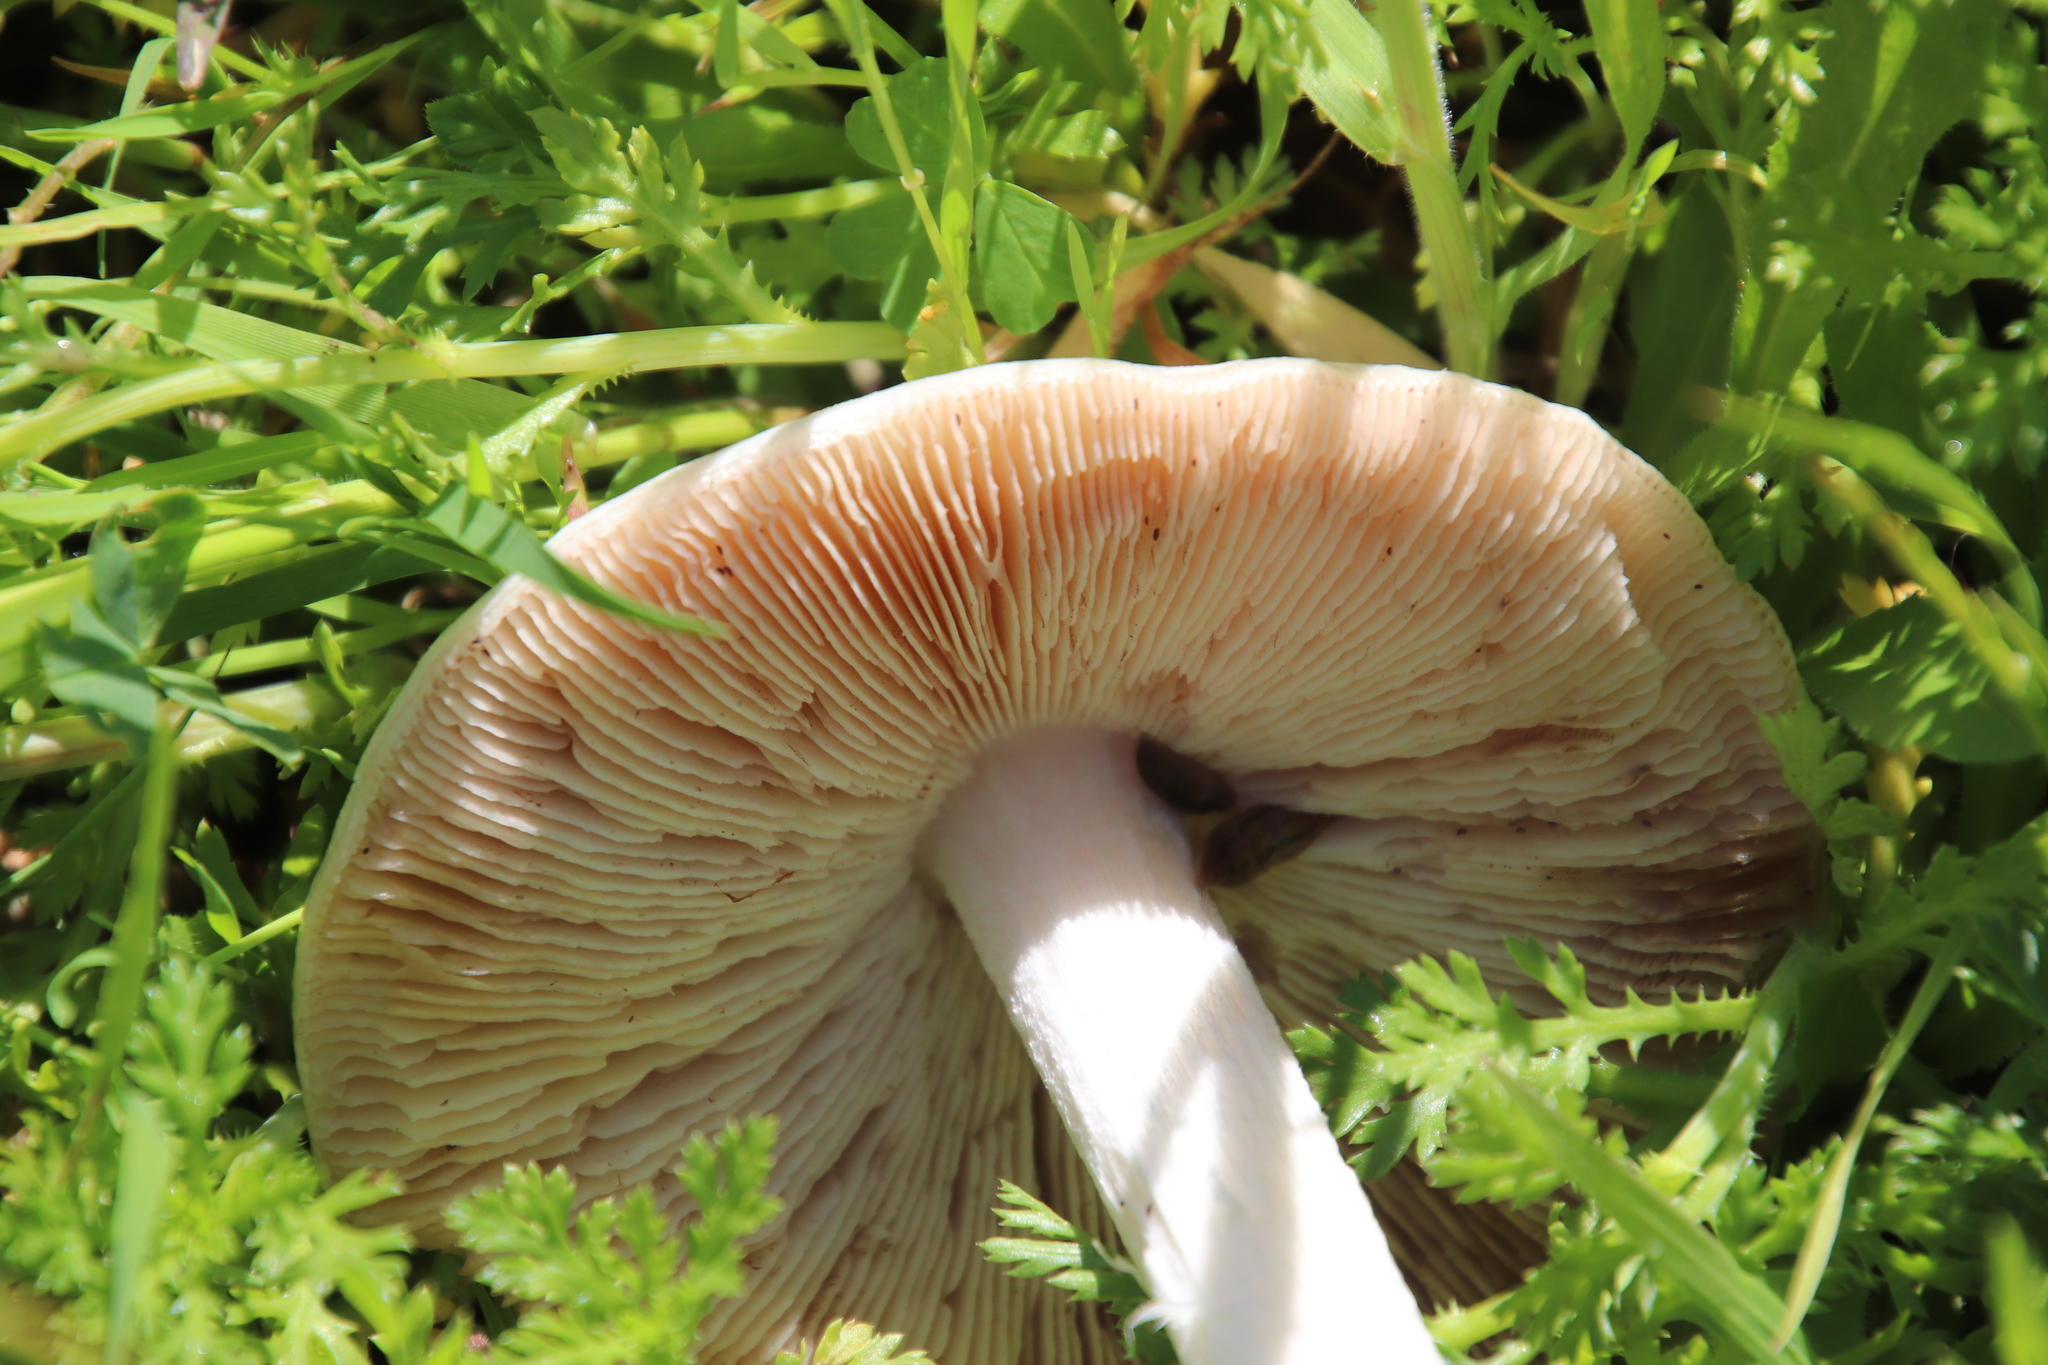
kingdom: Fungi
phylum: Basidiomycota
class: Agaricomycetes
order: Agaricales
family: Pluteaceae
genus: Volvopluteus
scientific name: Volvopluteus gloiocephalus
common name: Stubble rosegill
